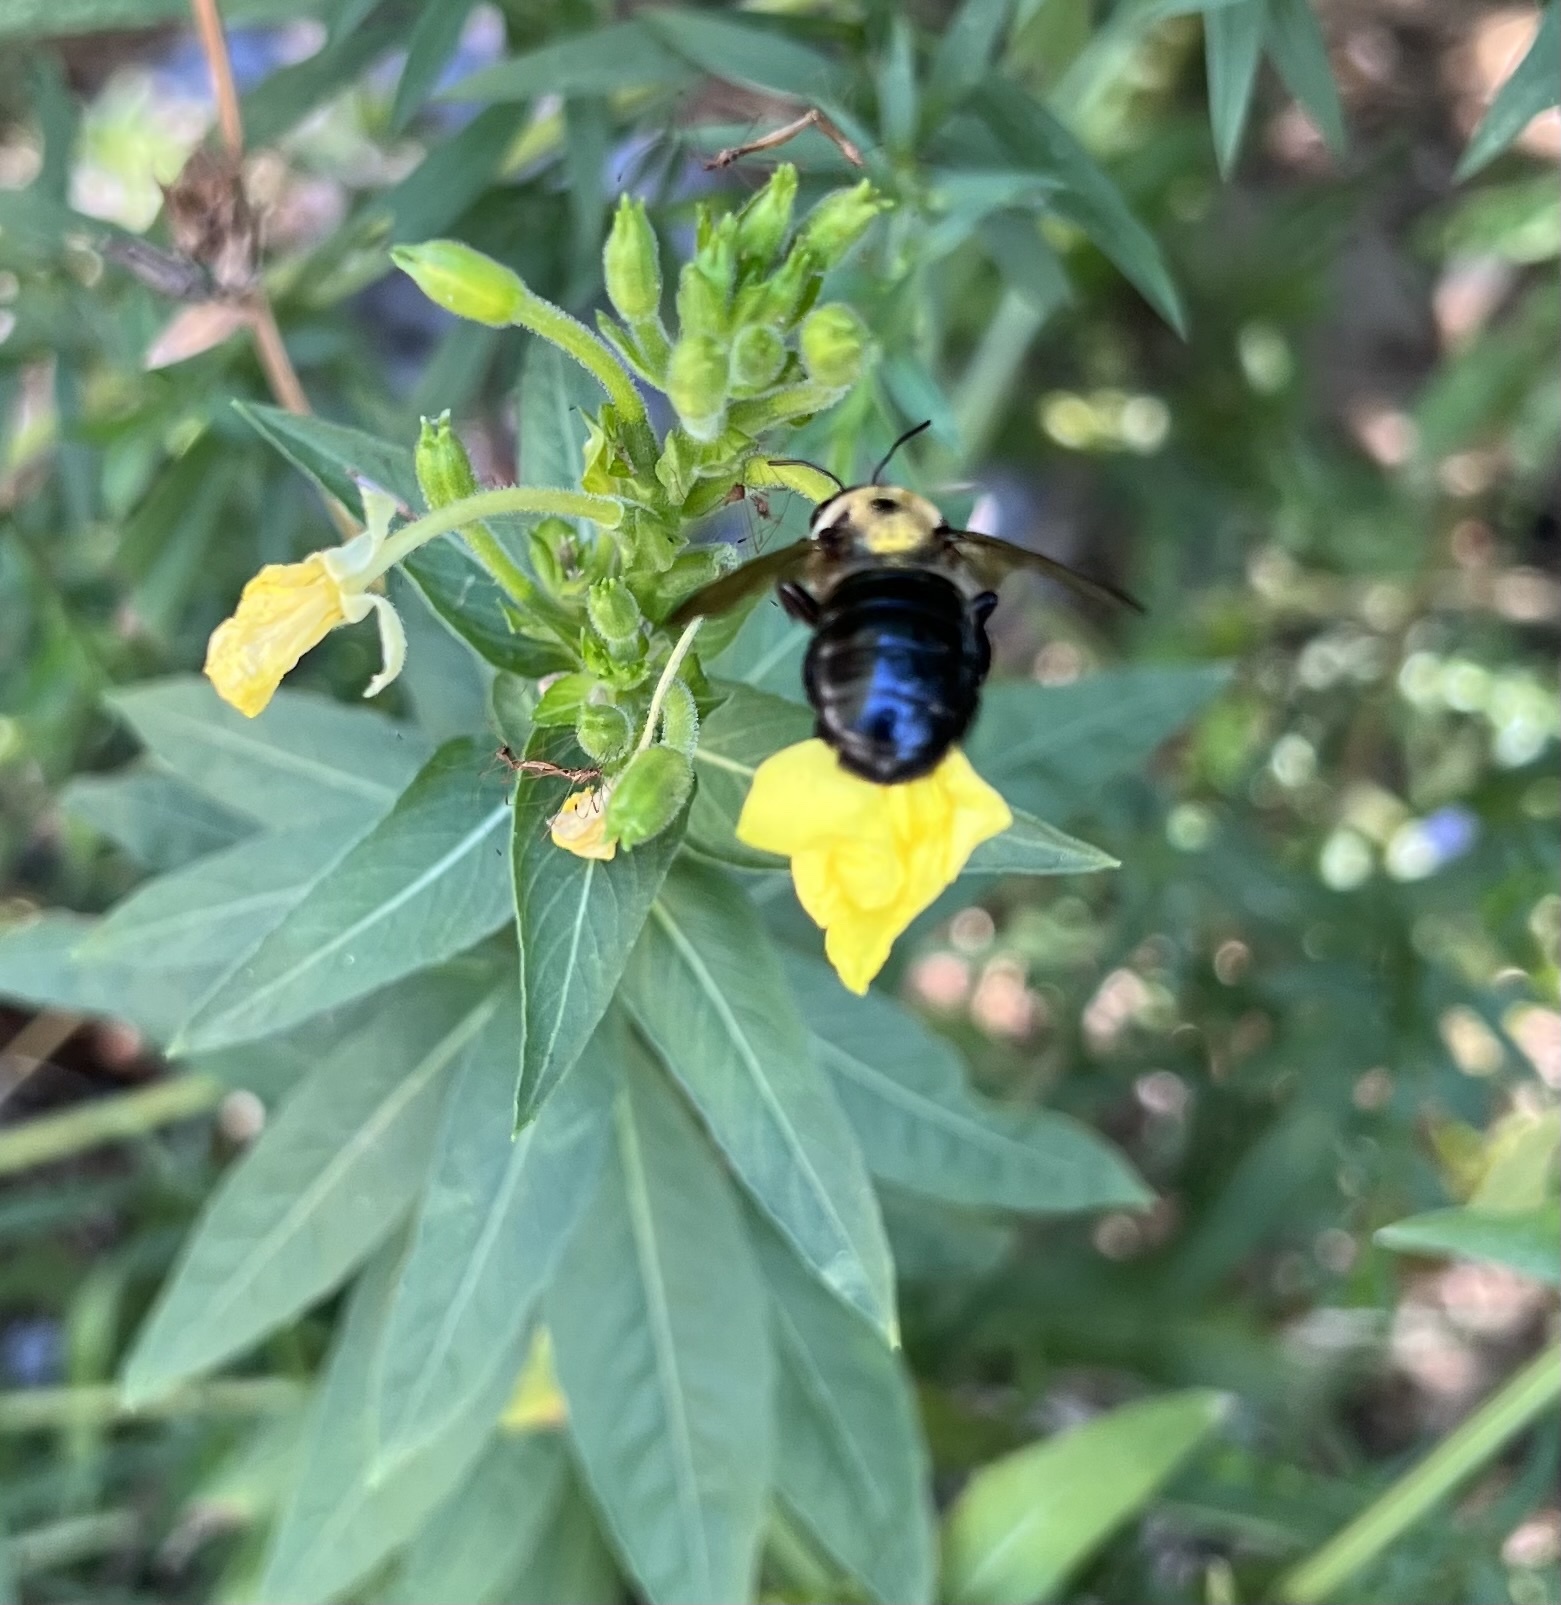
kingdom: Animalia
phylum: Arthropoda
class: Insecta
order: Hymenoptera
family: Apidae
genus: Xylocopa
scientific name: Xylocopa virginica
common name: Carpenter bee
